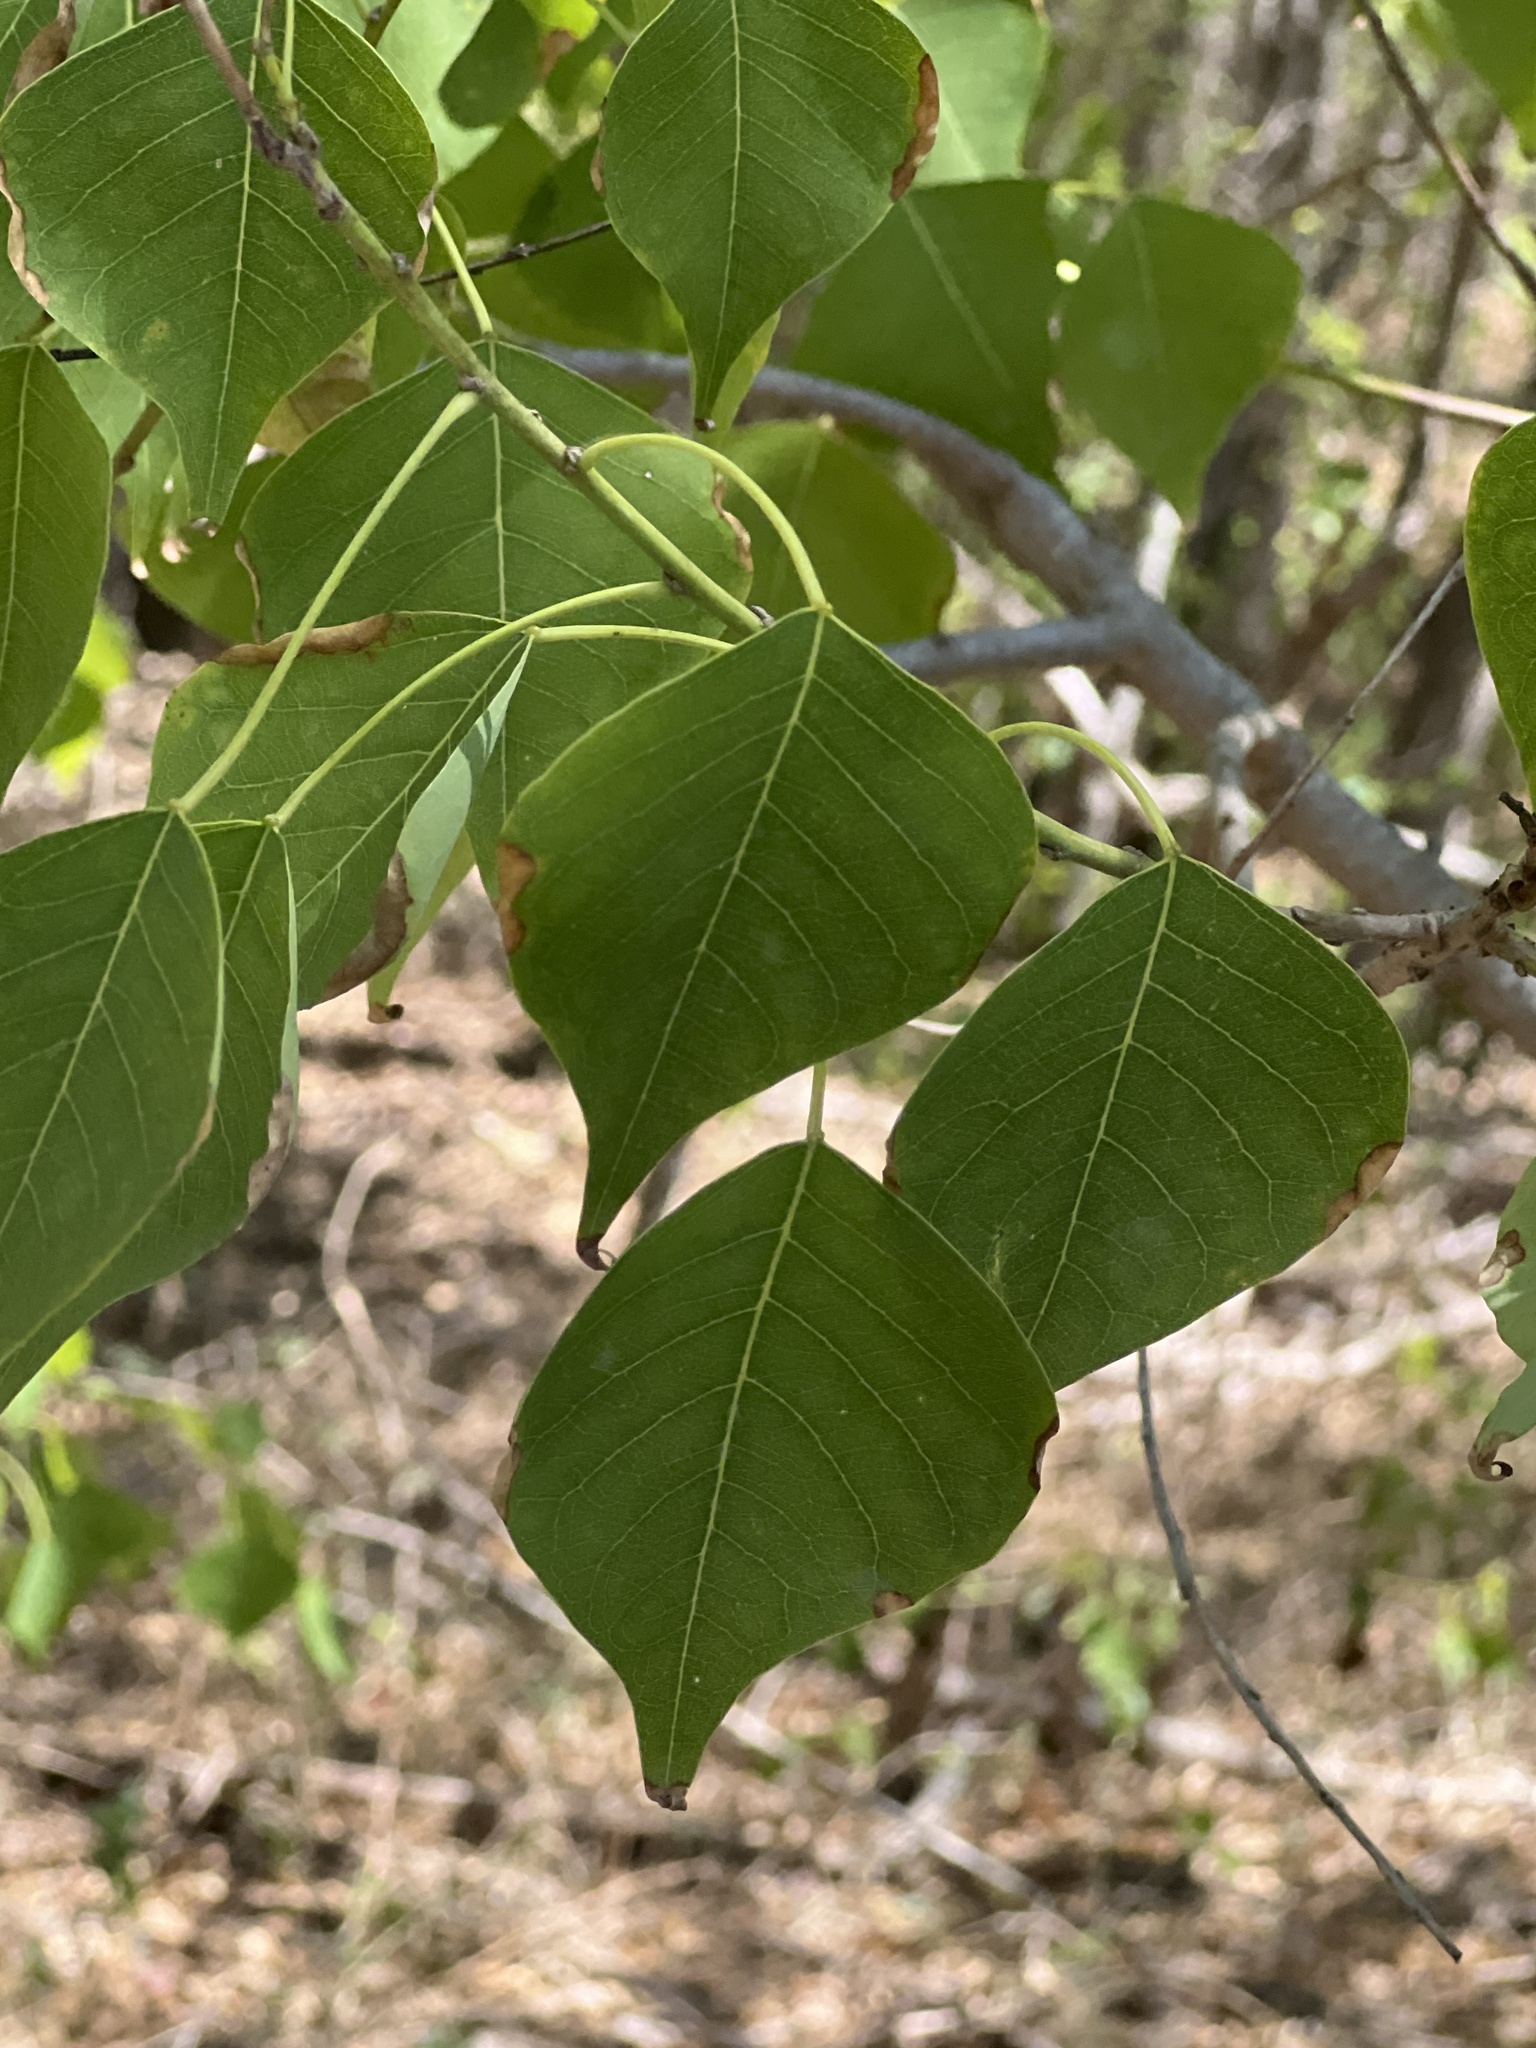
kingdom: Plantae
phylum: Tracheophyta
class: Magnoliopsida
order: Malpighiales
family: Euphorbiaceae
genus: Triadica
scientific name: Triadica sebifera
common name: Chinese tallow
